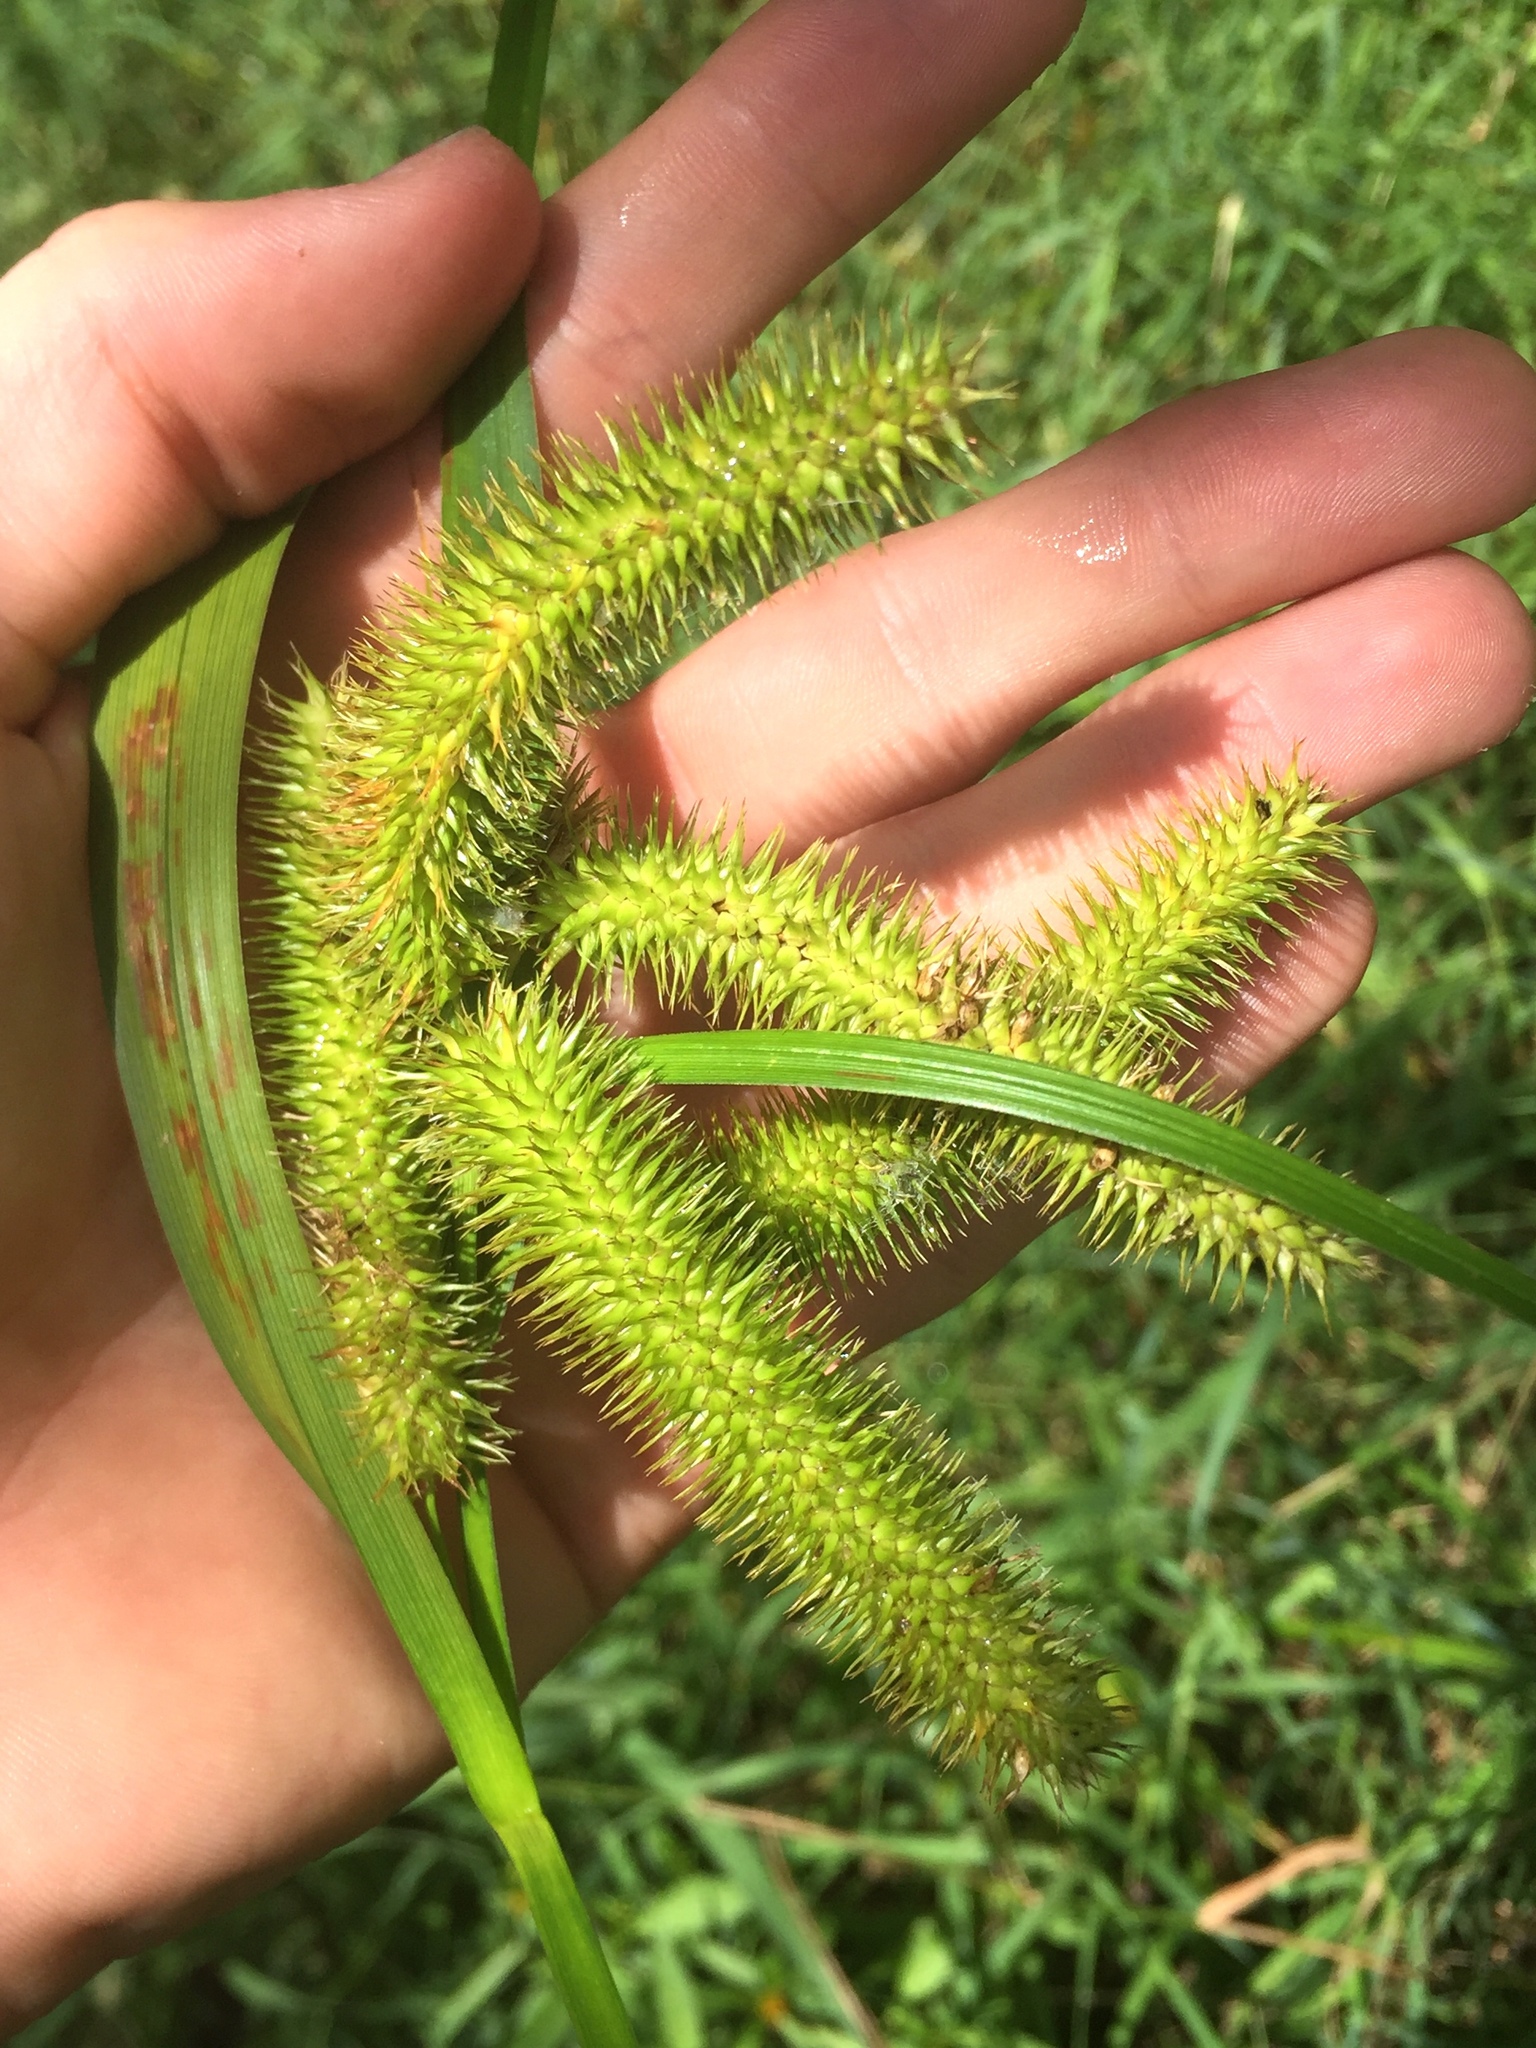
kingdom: Plantae
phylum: Tracheophyta
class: Liliopsida
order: Poales
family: Cyperaceae
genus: Carex
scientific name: Carex comosa
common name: Bristly sedge
